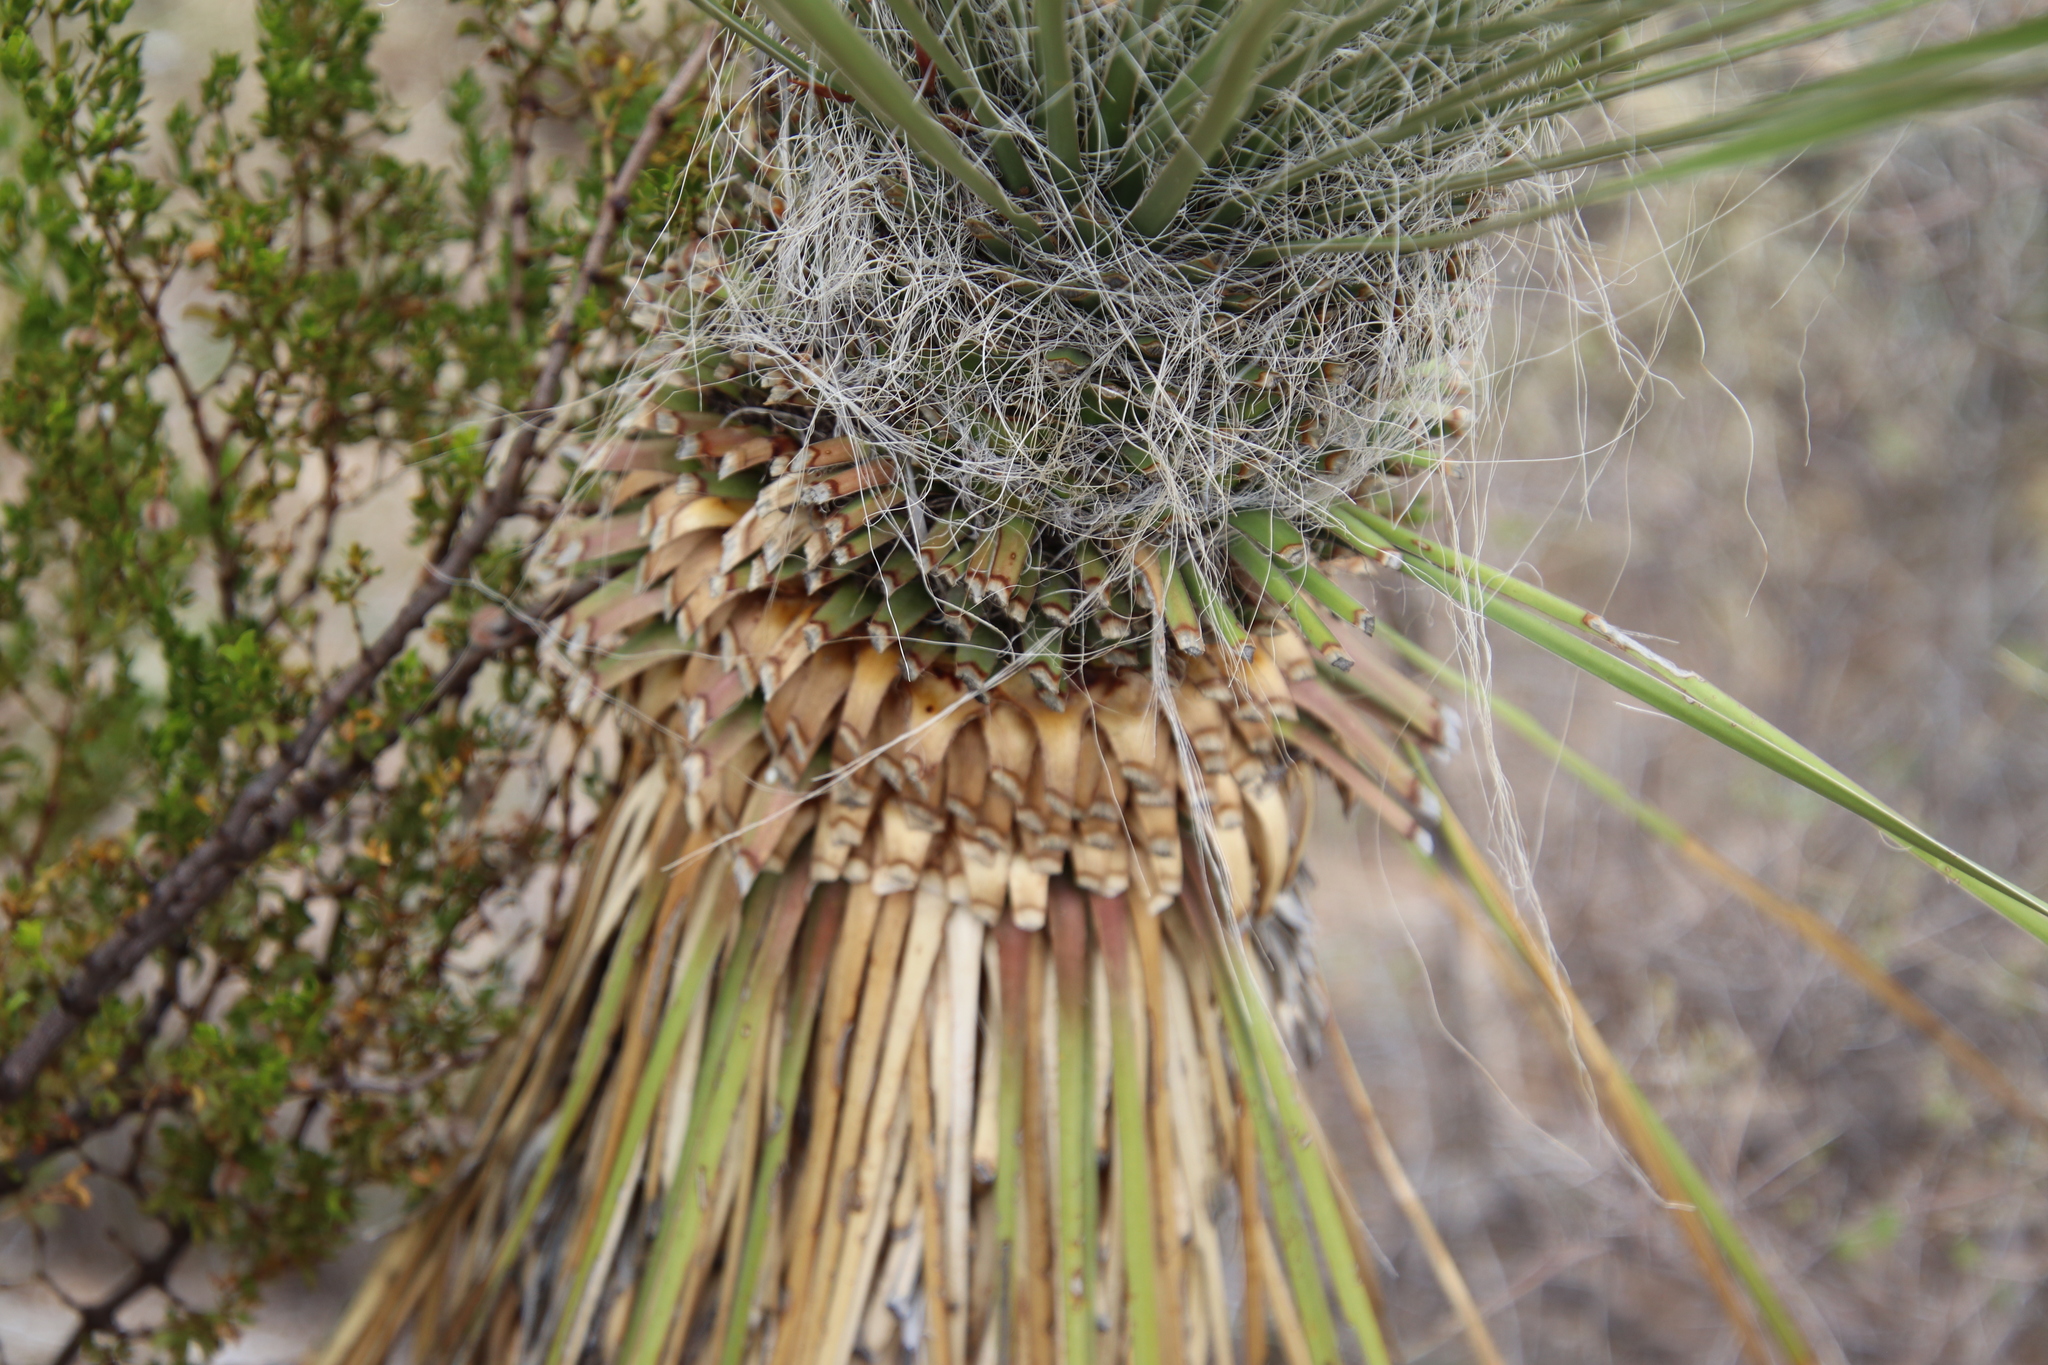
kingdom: Plantae
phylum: Tracheophyta
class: Liliopsida
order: Asparagales
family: Asparagaceae
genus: Yucca
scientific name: Yucca elata
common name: Palmella
